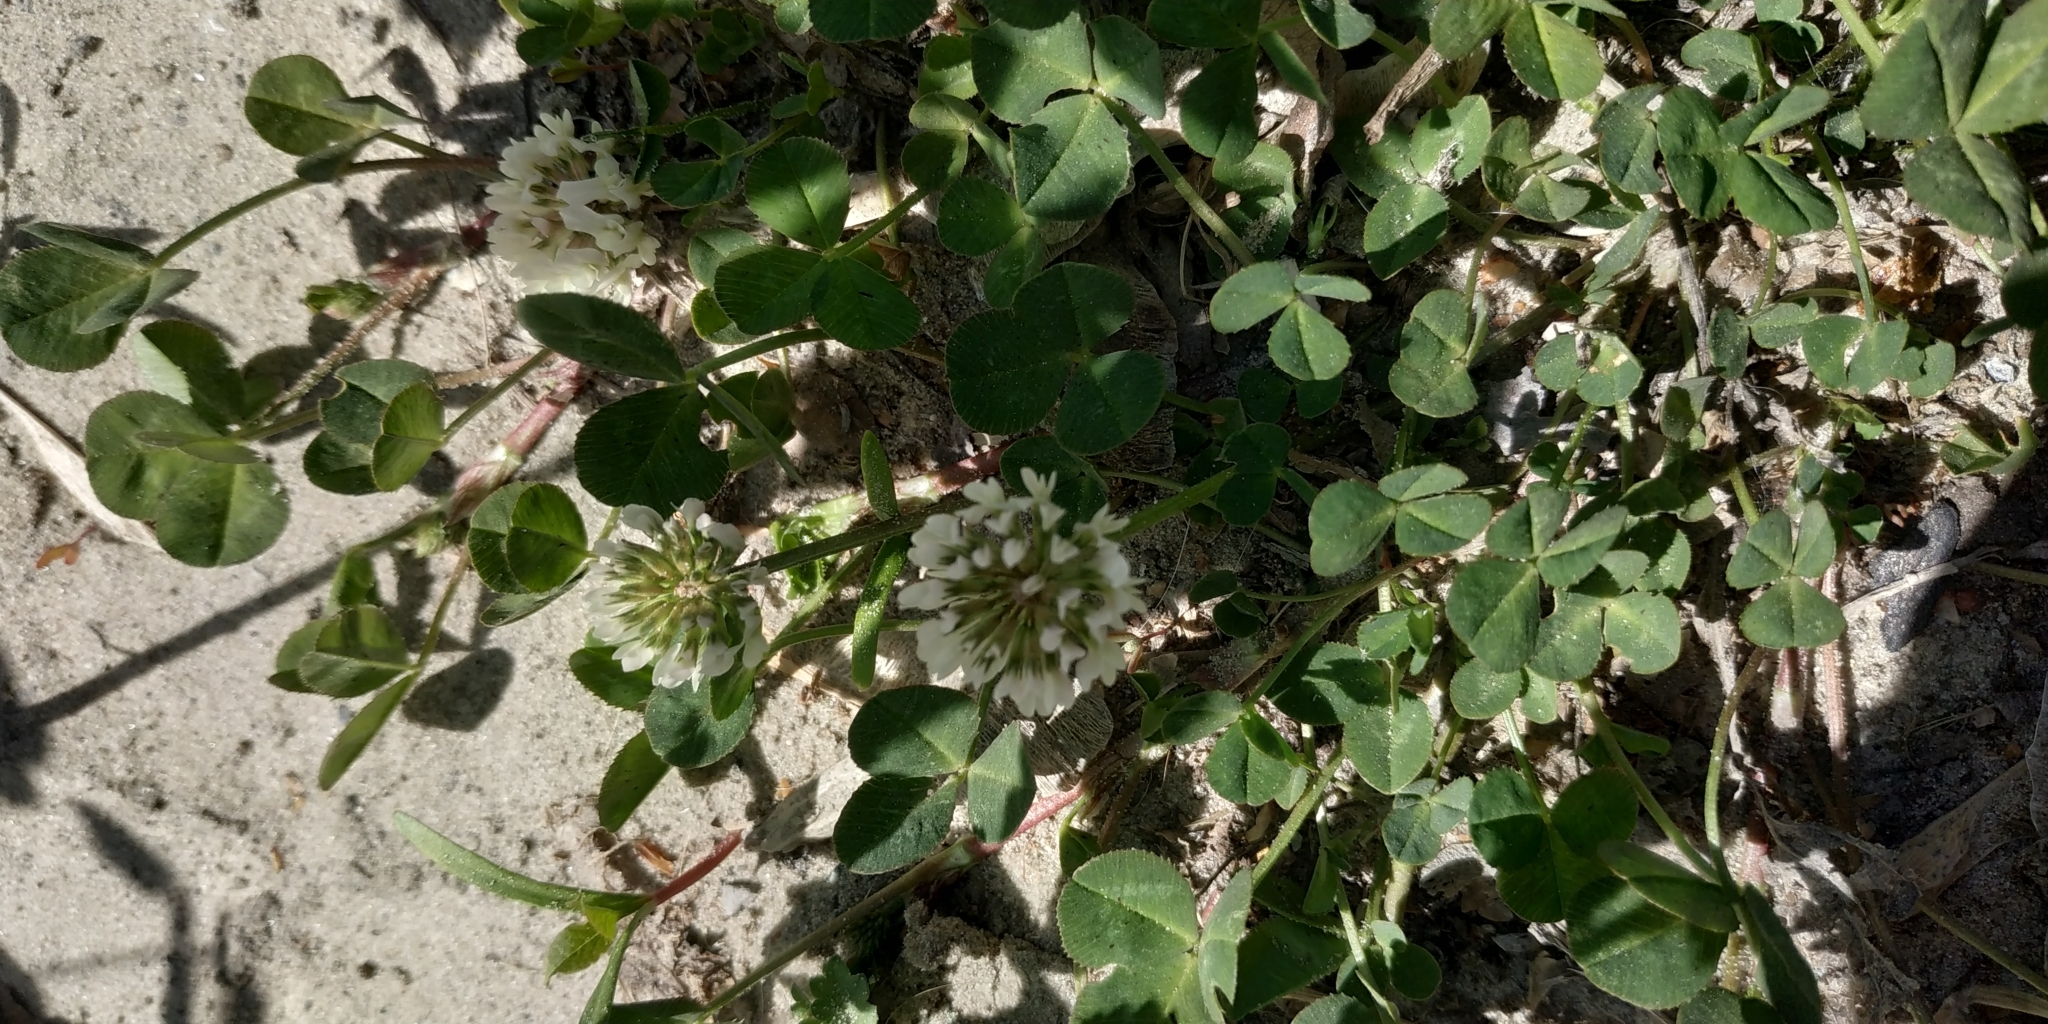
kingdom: Plantae
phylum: Tracheophyta
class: Magnoliopsida
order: Fabales
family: Fabaceae
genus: Trifolium
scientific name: Trifolium repens
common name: White clover
